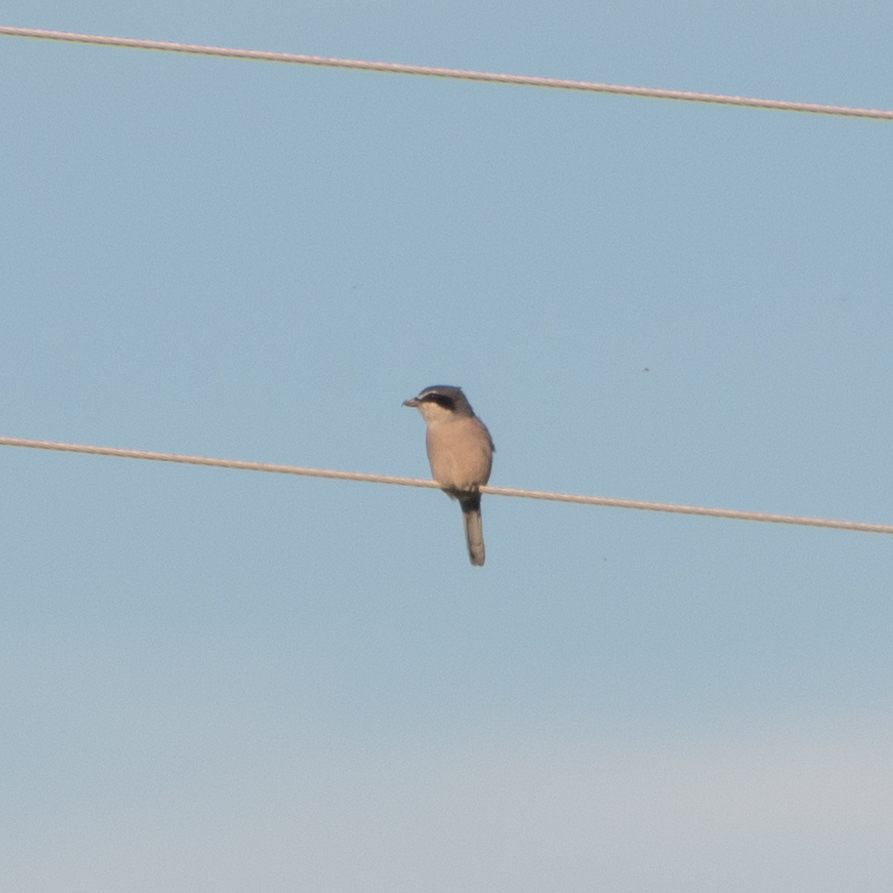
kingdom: Animalia
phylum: Chordata
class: Aves
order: Passeriformes
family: Laniidae
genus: Lanius
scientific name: Lanius meridionalis
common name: Iberian grey shrike
